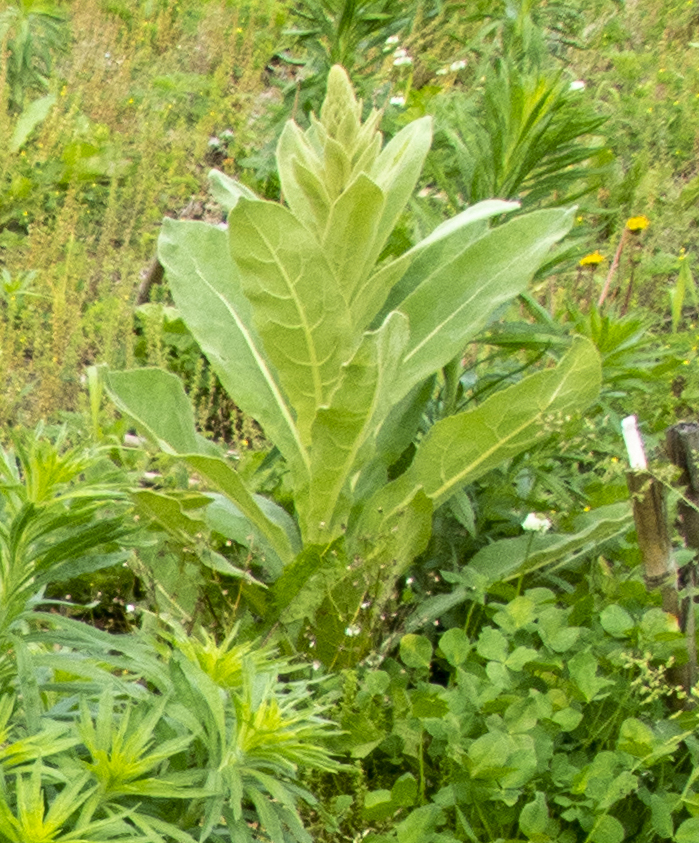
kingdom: Plantae
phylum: Tracheophyta
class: Magnoliopsida
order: Lamiales
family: Scrophulariaceae
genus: Verbascum
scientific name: Verbascum thapsus
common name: Common mullein
